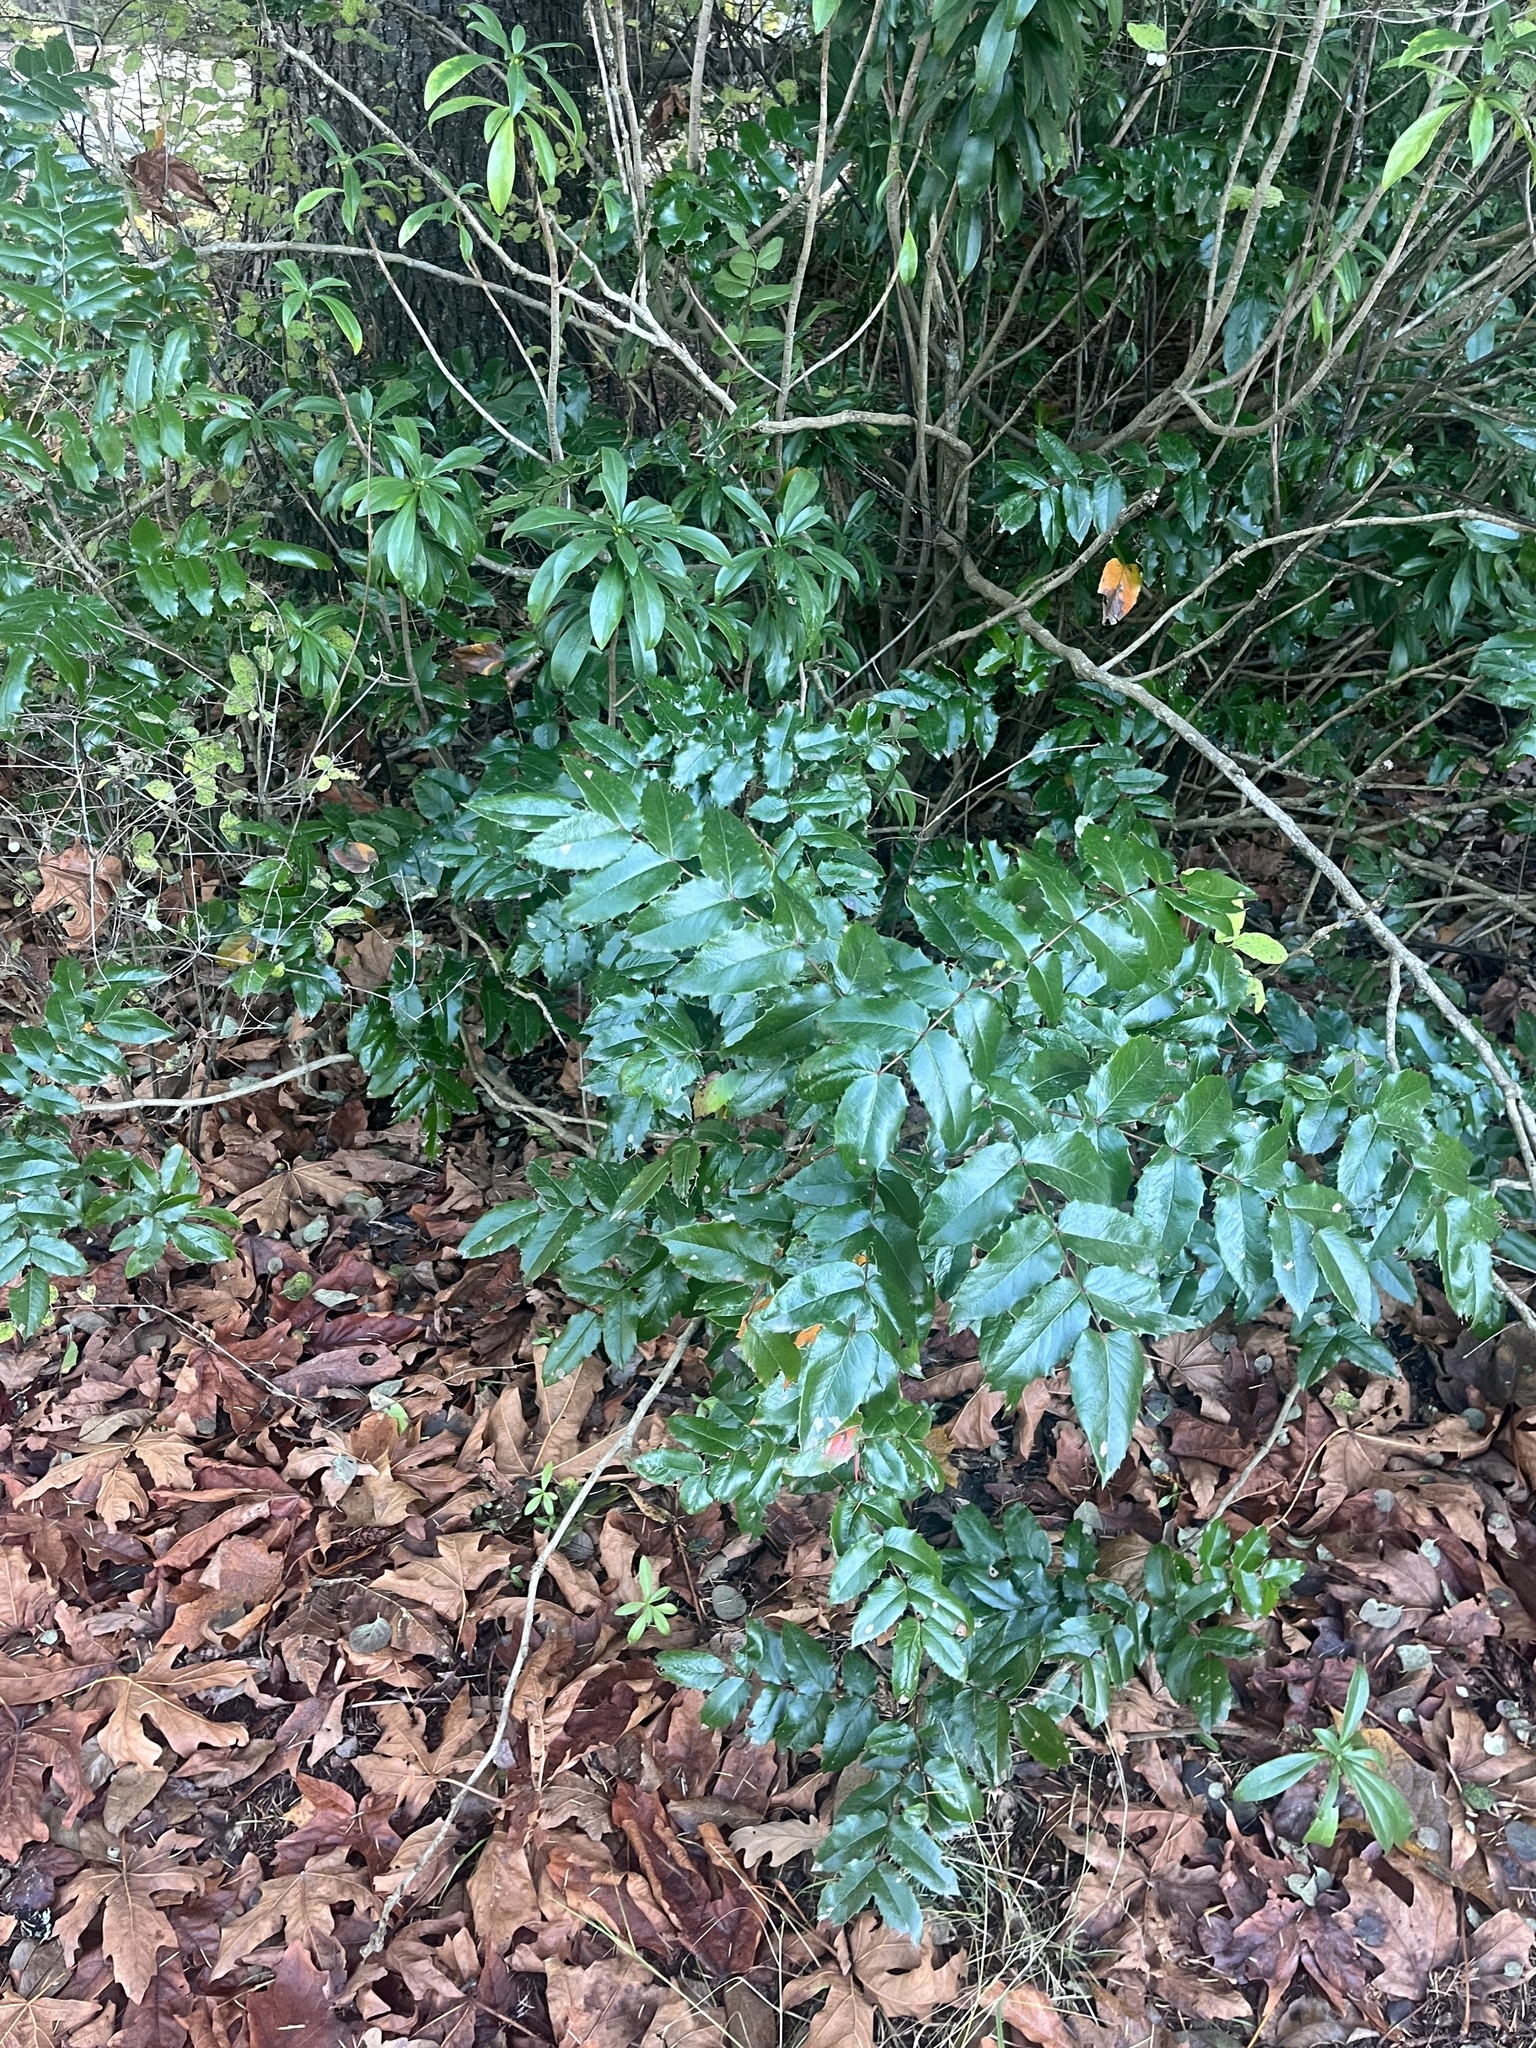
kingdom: Plantae
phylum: Tracheophyta
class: Magnoliopsida
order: Ranunculales
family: Berberidaceae
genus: Mahonia
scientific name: Mahonia aquifolium
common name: Oregon-grape
